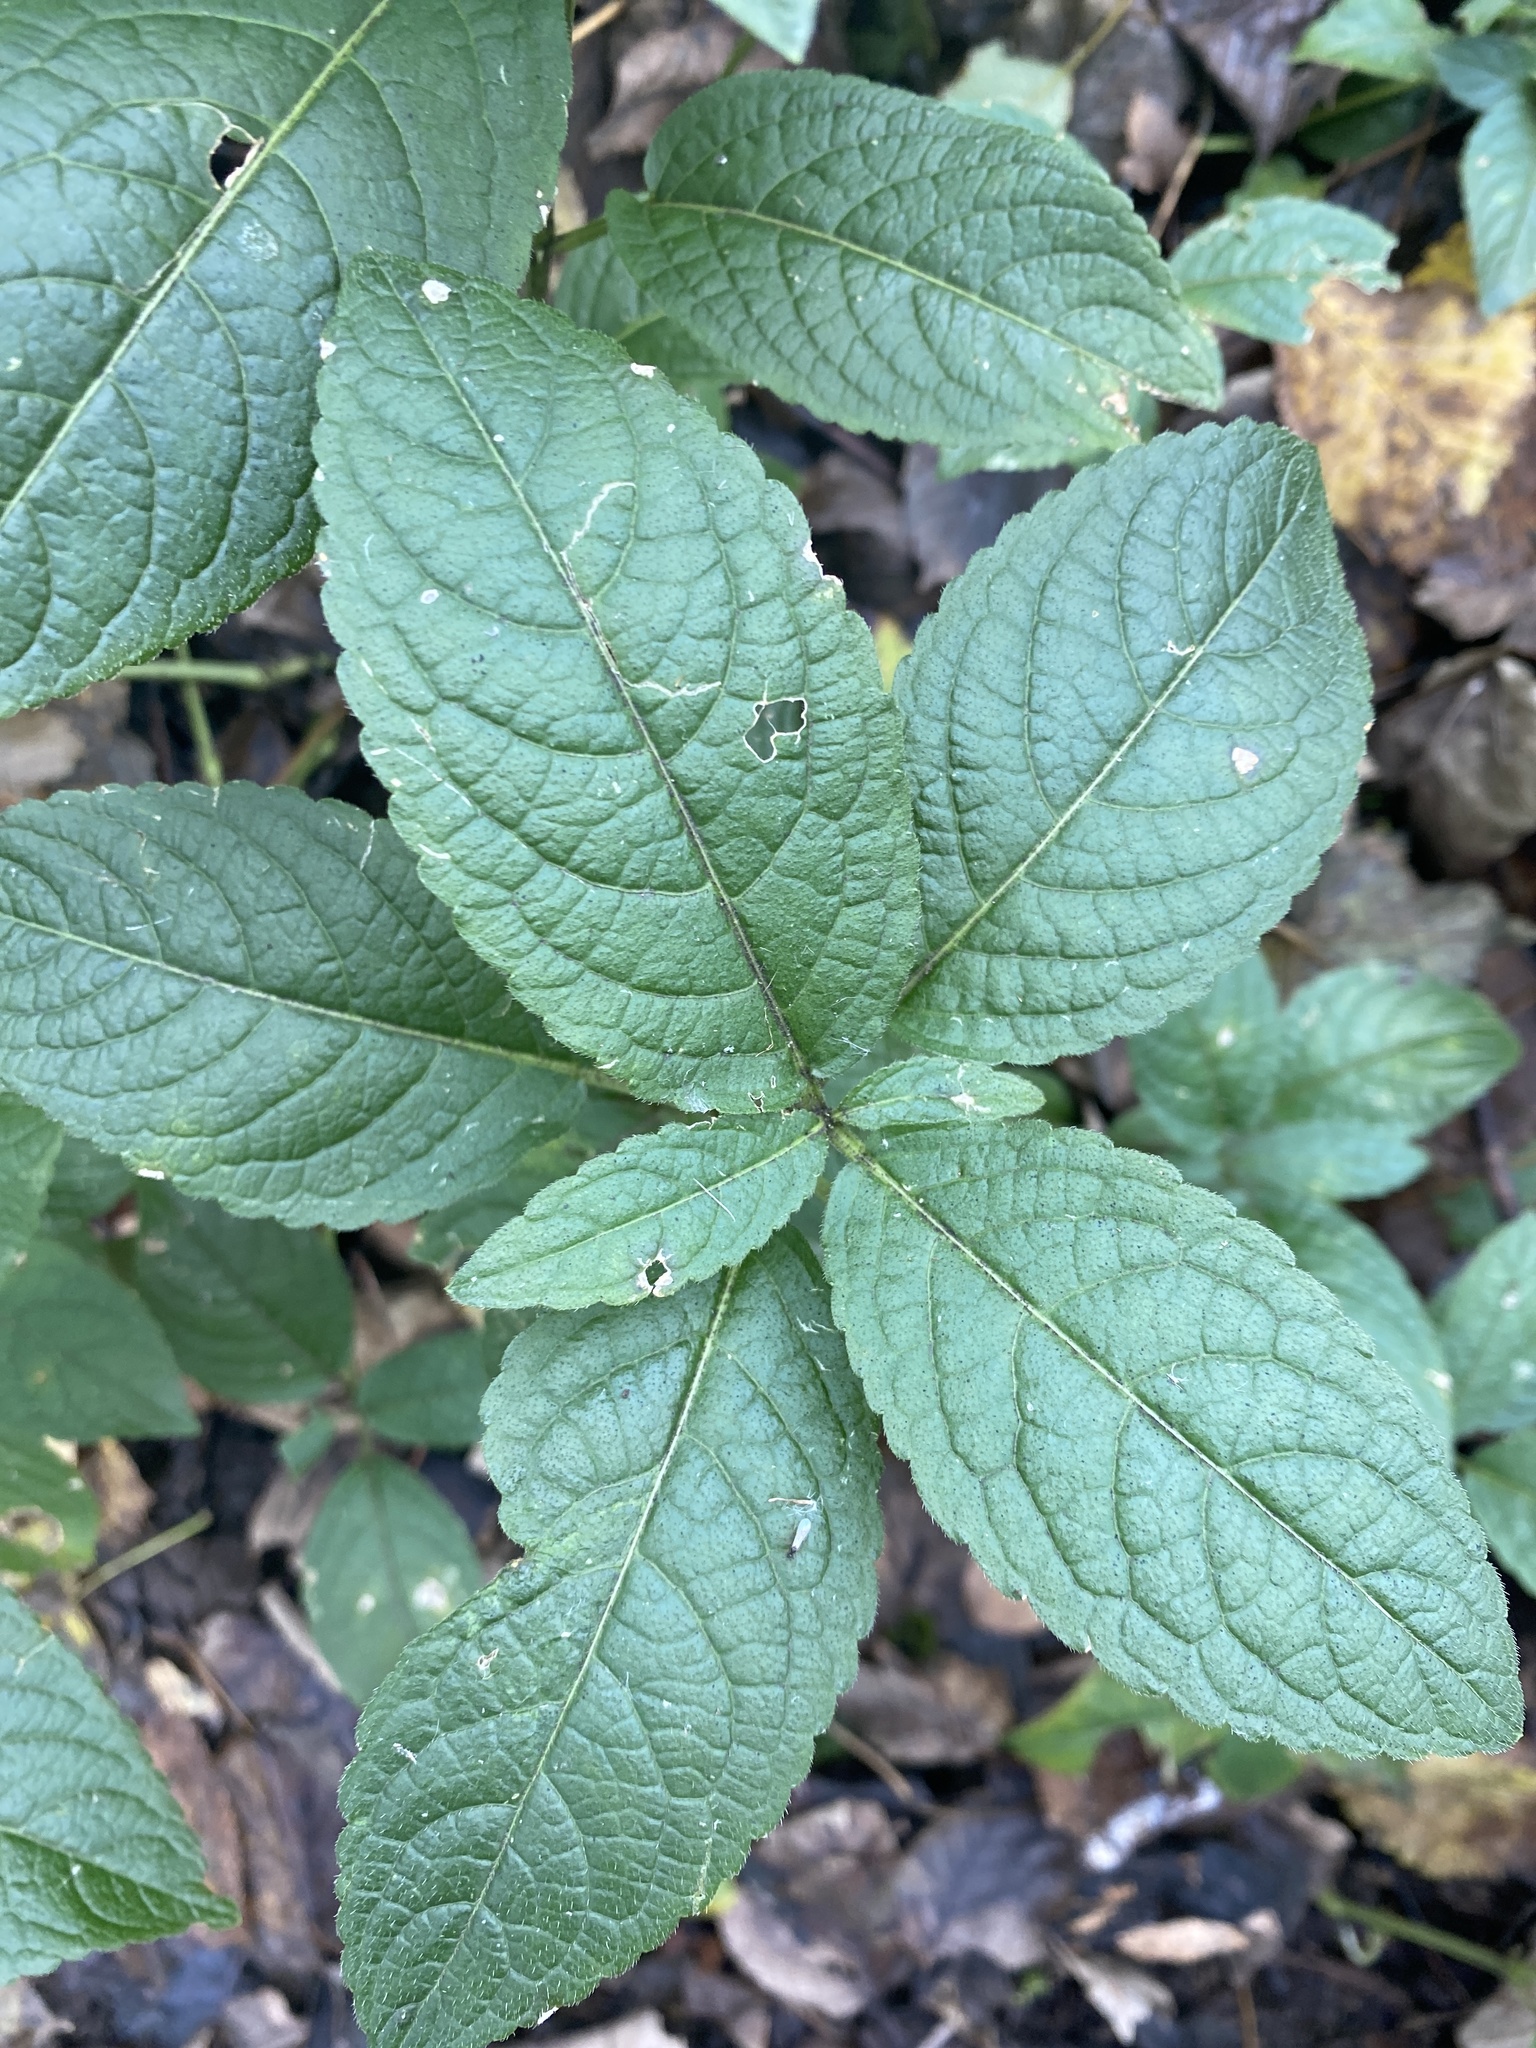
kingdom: Plantae
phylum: Tracheophyta
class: Magnoliopsida
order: Malpighiales
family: Euphorbiaceae
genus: Mercurialis
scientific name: Mercurialis perennis
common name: Dog mercury
